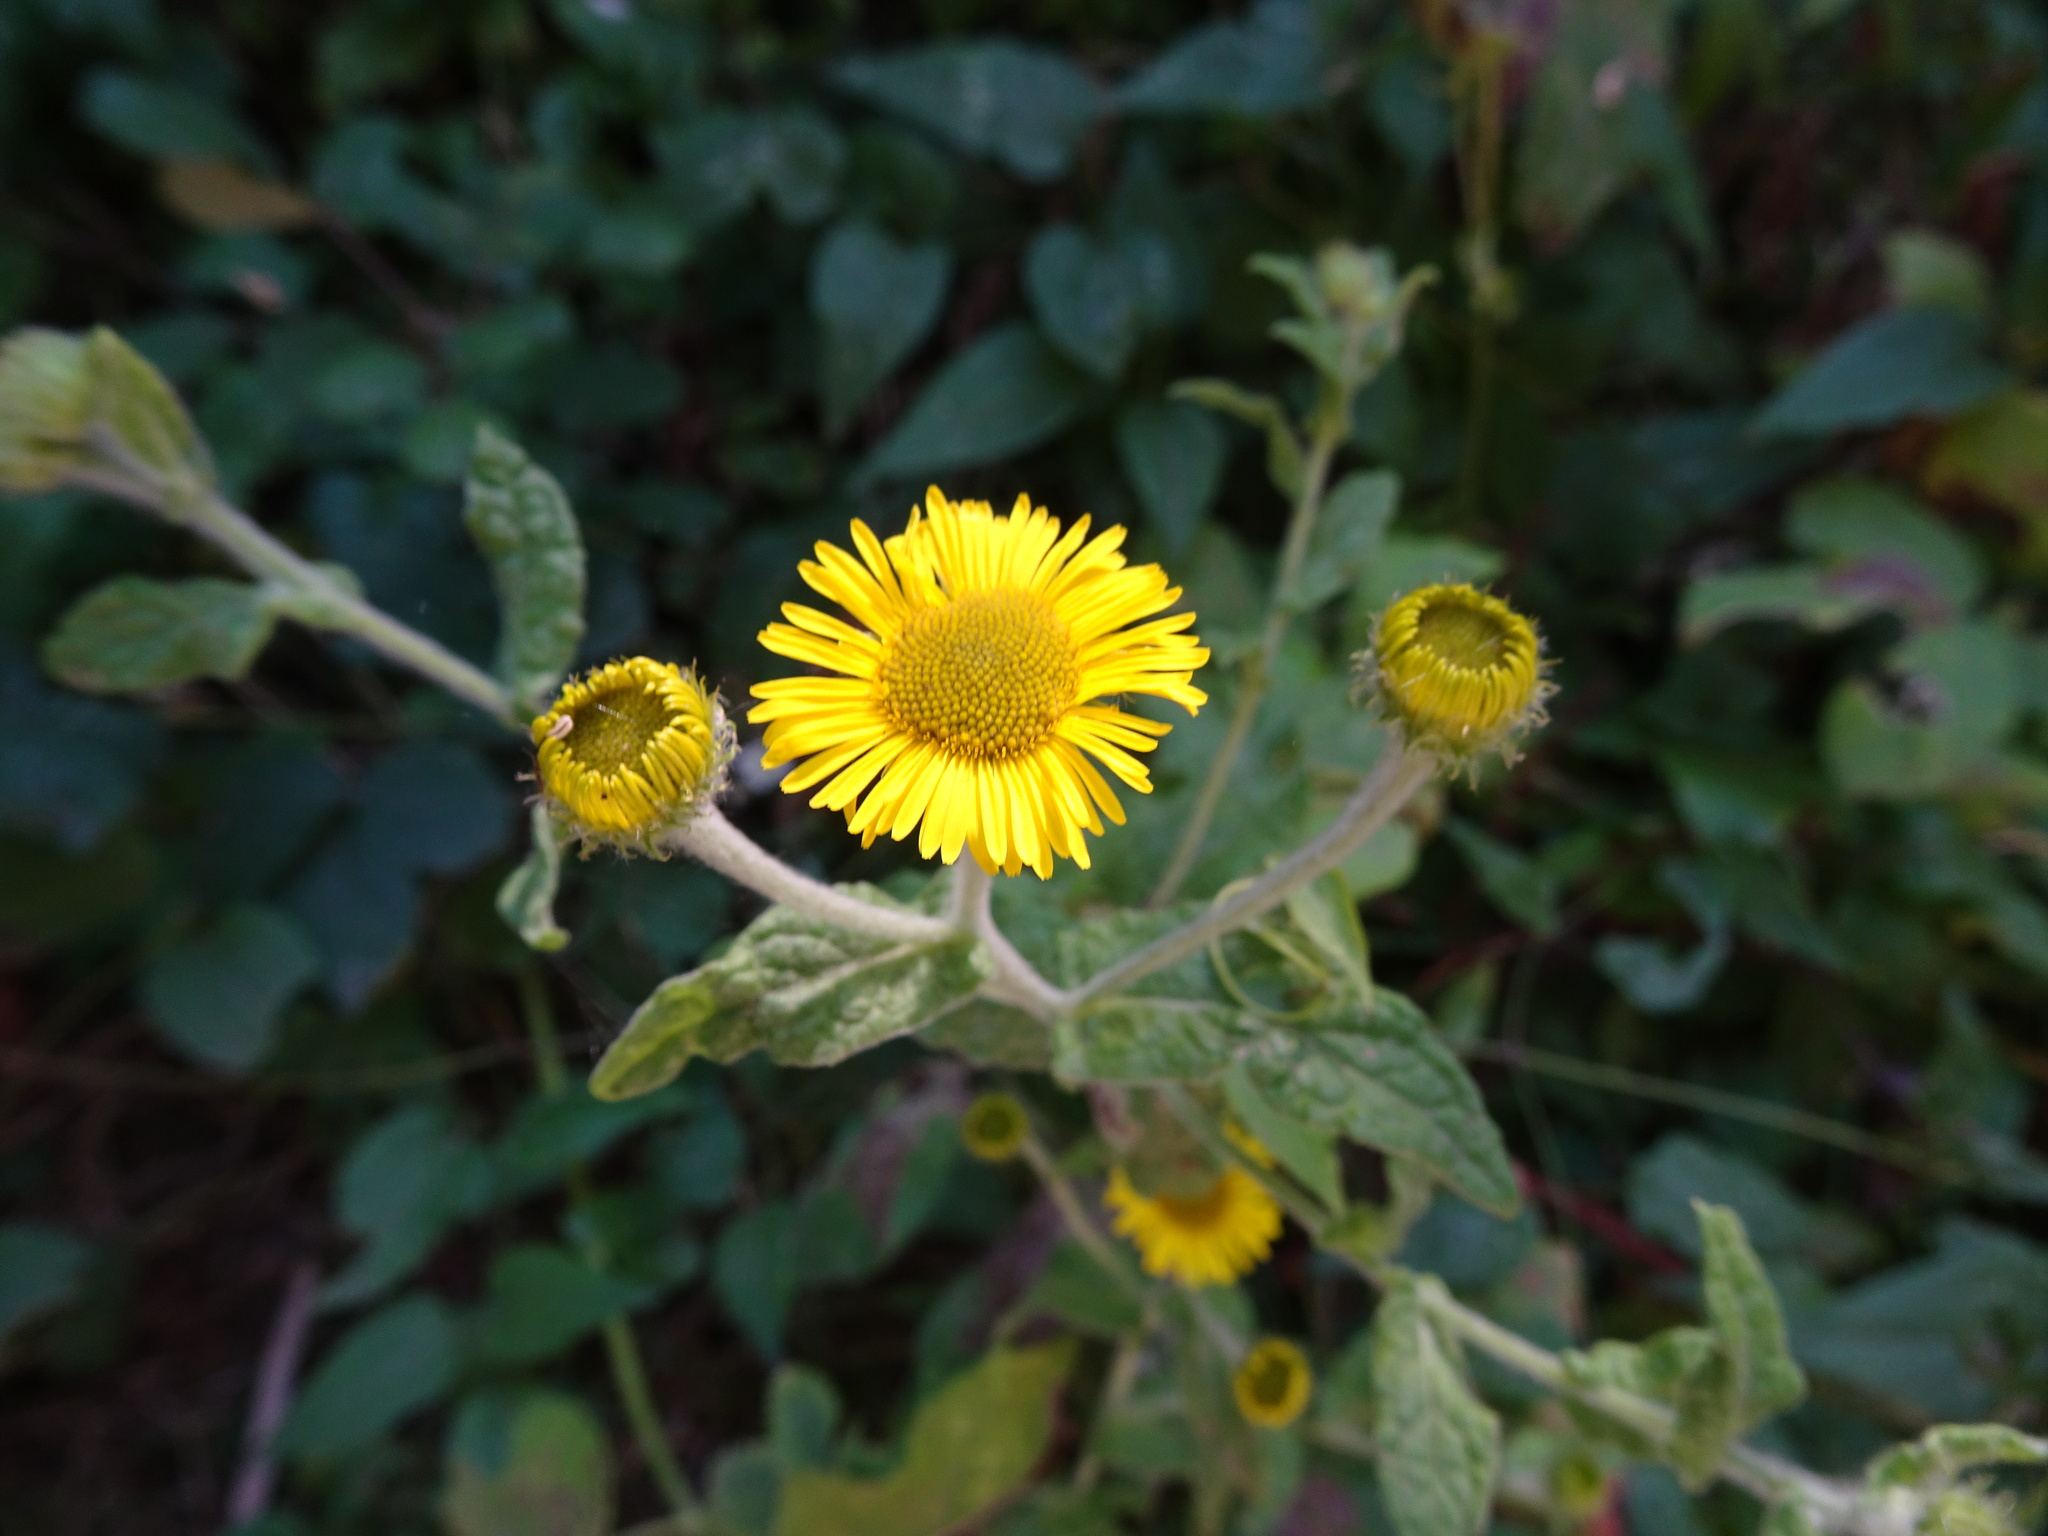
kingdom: Plantae
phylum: Tracheophyta
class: Magnoliopsida
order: Asterales
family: Asteraceae
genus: Pulicaria
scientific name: Pulicaria dysenterica
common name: Common fleabane
